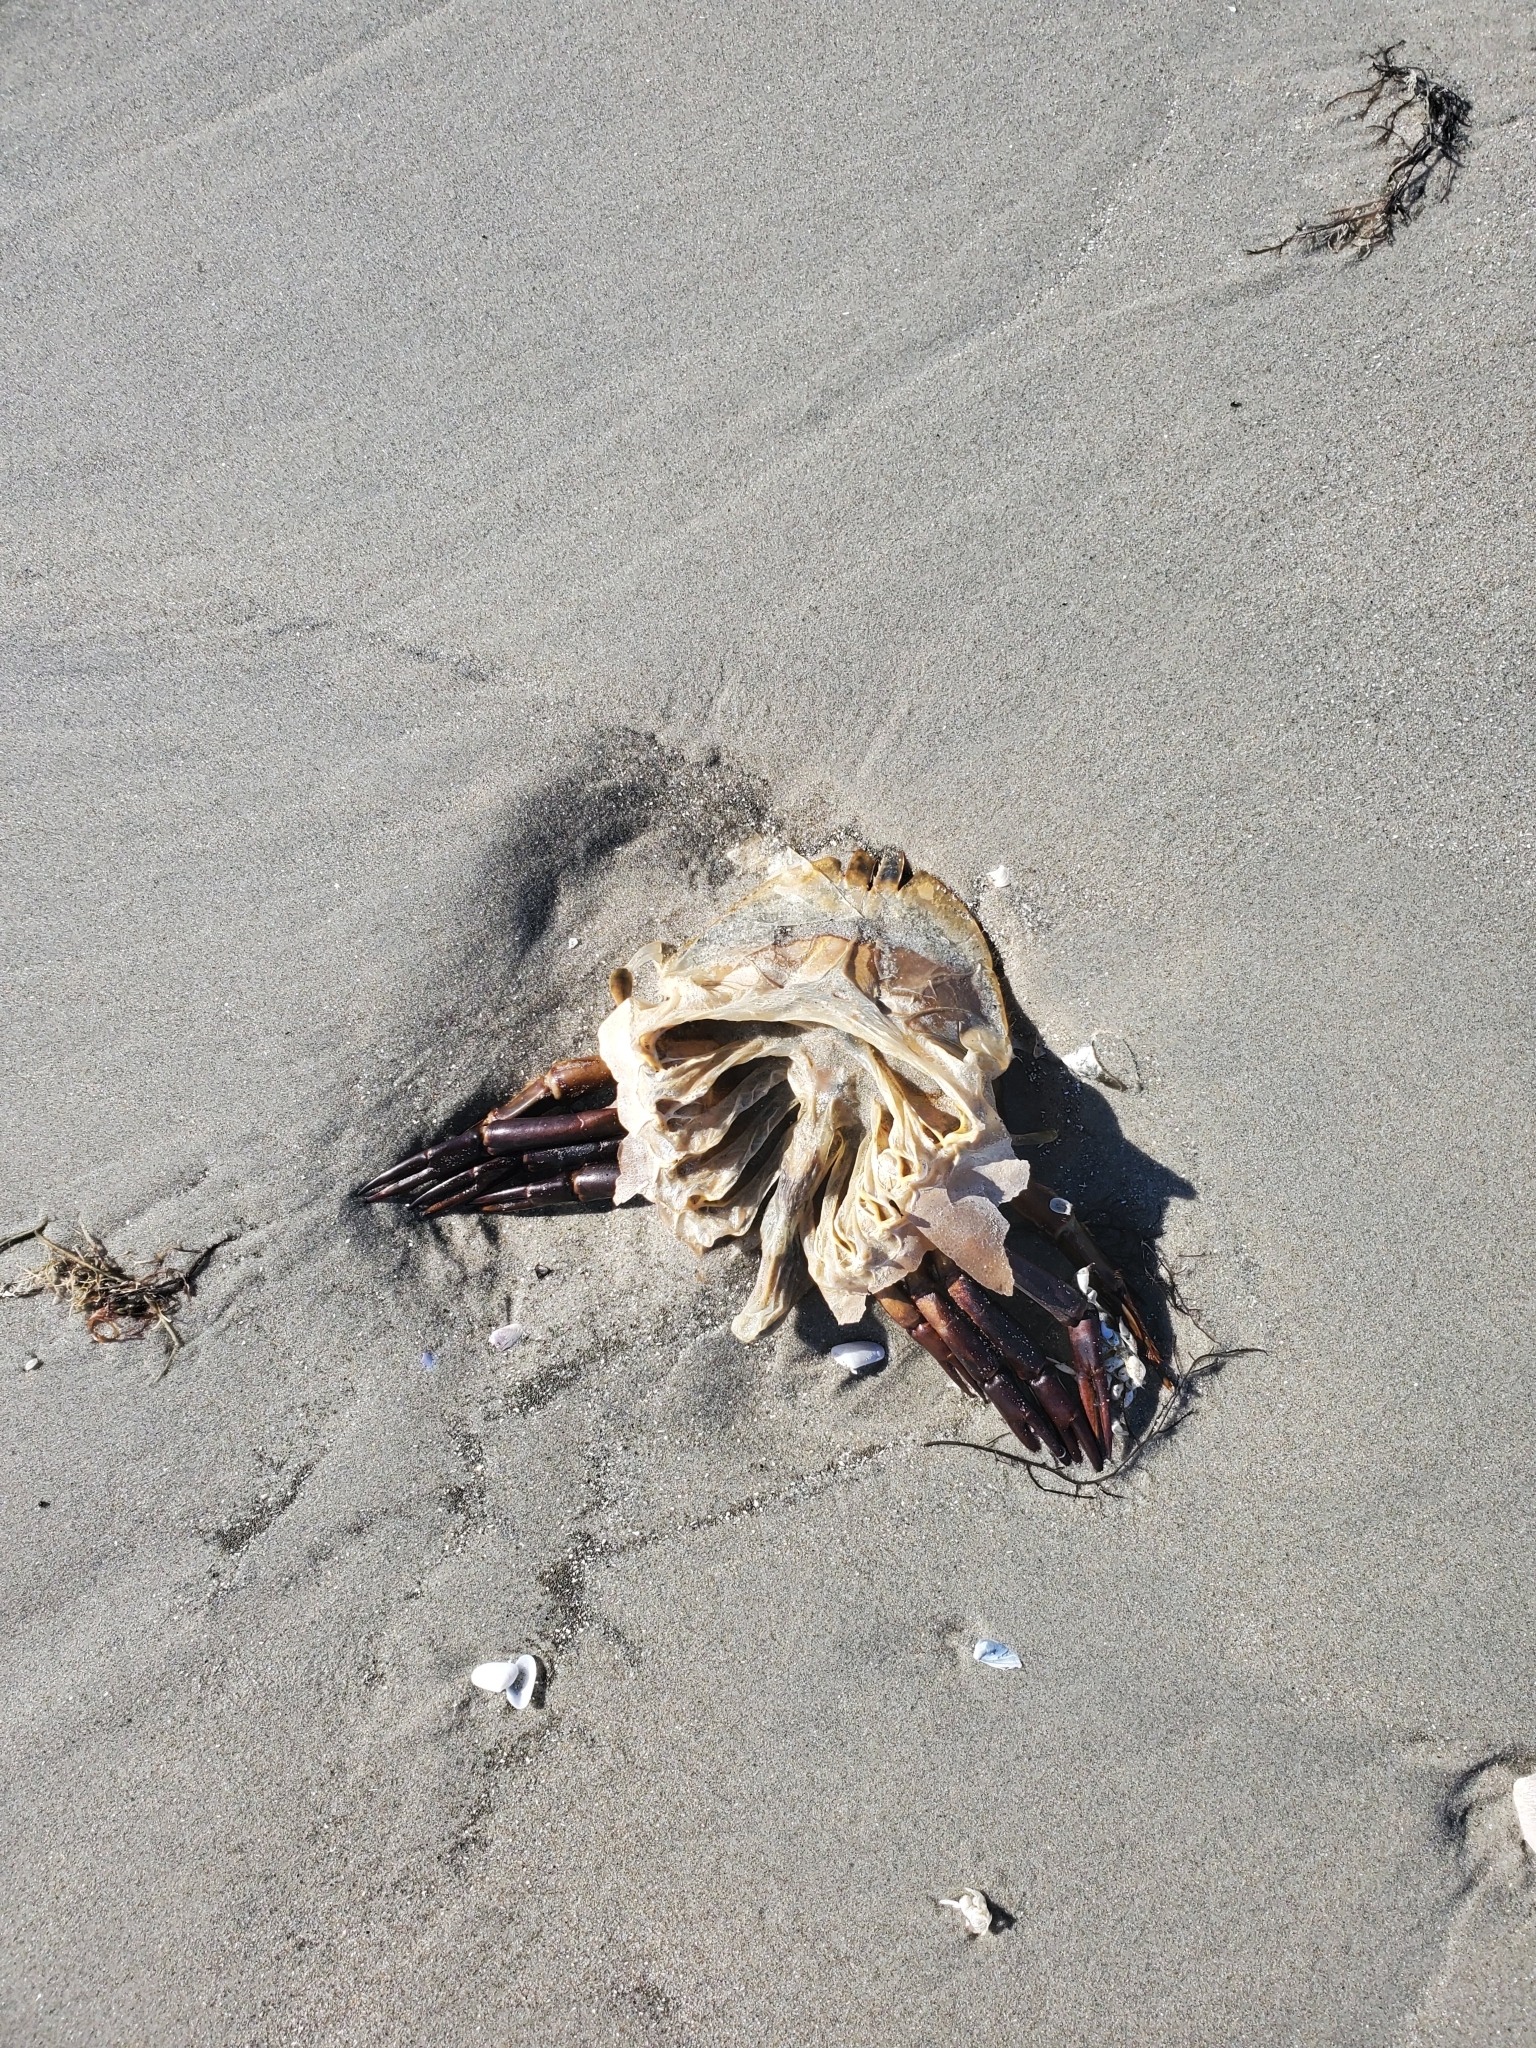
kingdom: Animalia
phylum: Arthropoda
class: Merostomata
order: Xiphosurida
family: Limulidae
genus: Limulus
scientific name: Limulus polyphemus
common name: Horseshoe crab
